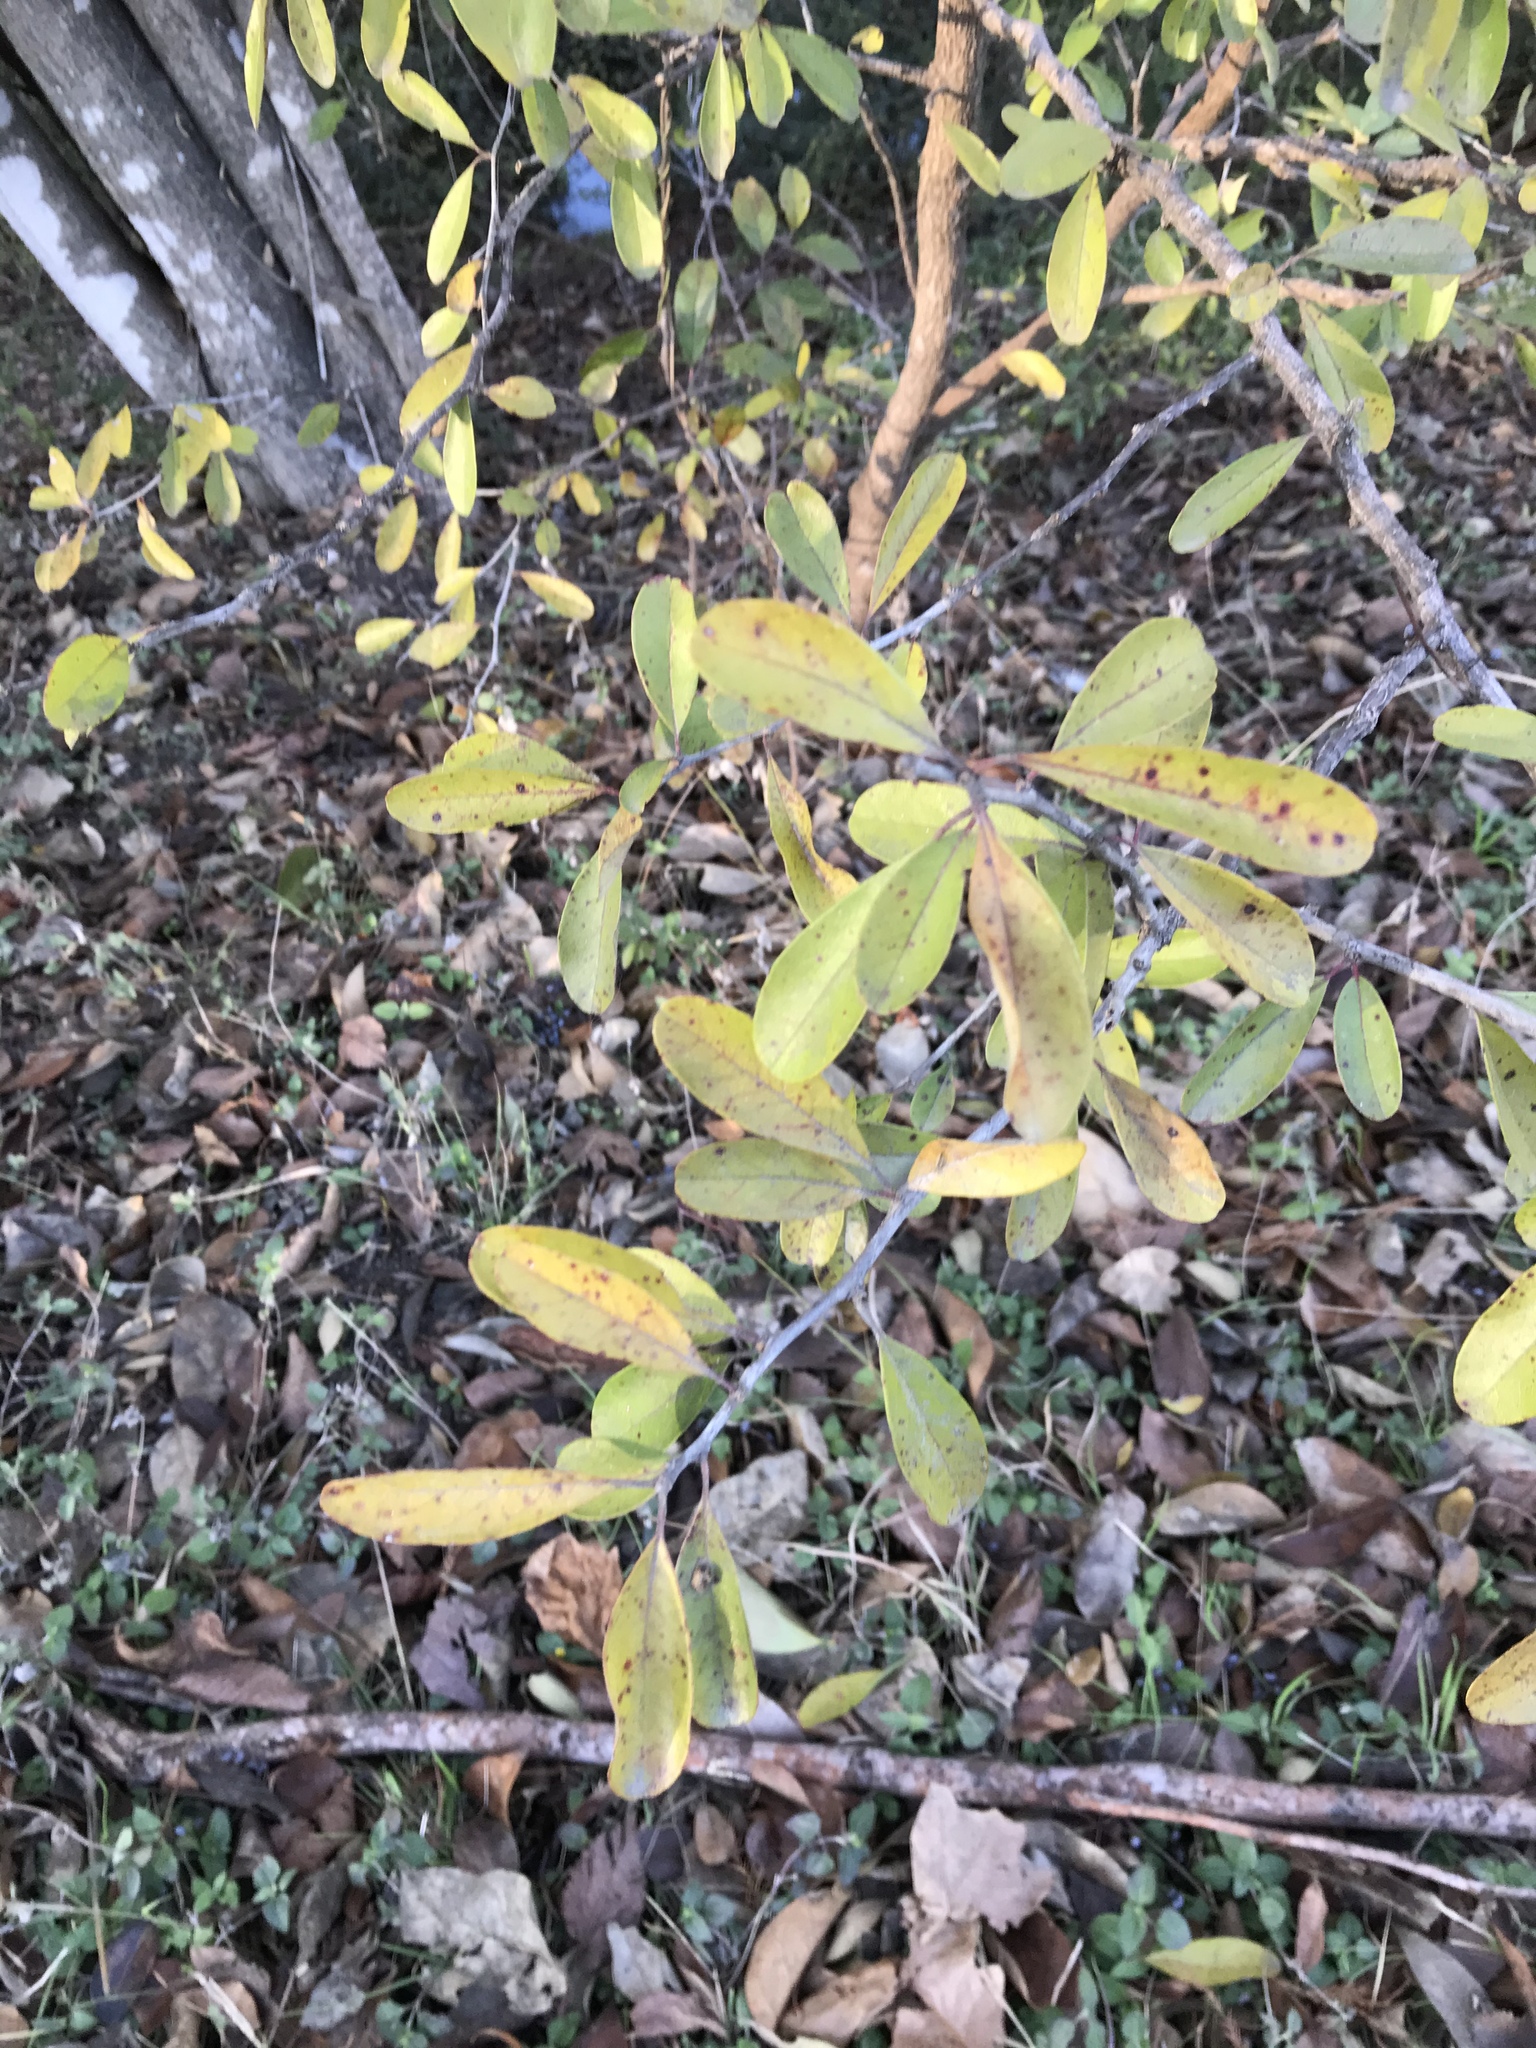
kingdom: Plantae
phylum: Tracheophyta
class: Magnoliopsida
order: Ericales
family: Sapotaceae
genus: Sideroxylon
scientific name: Sideroxylon lanuginosum
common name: Chittamwood
